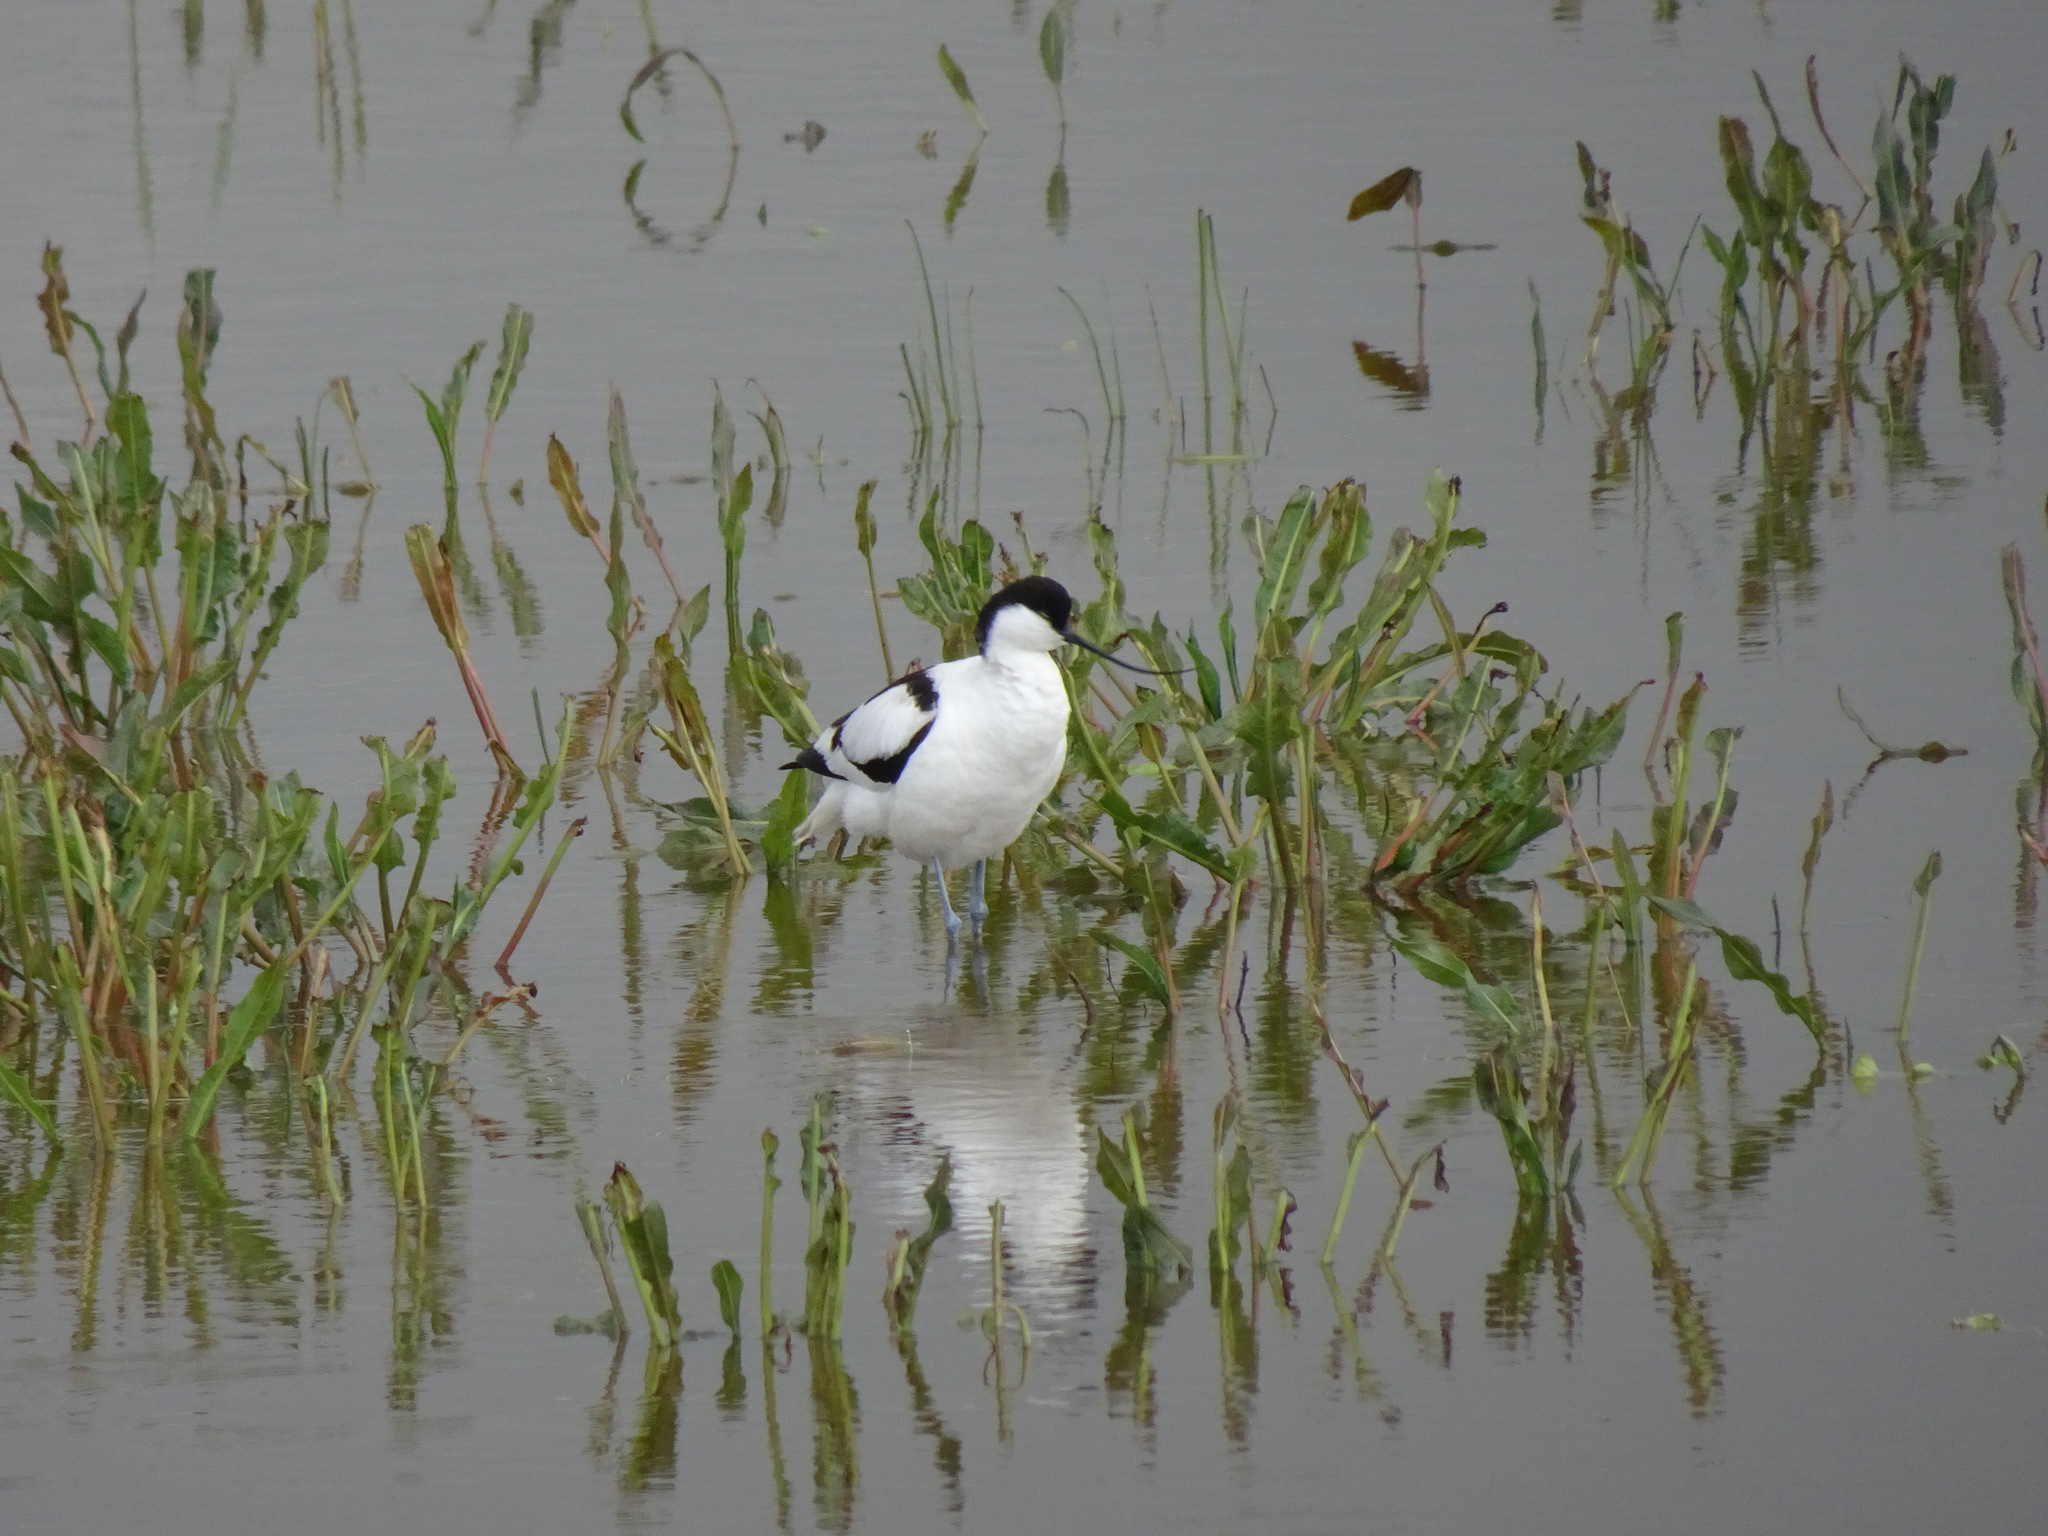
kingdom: Animalia
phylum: Chordata
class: Aves
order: Charadriiformes
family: Recurvirostridae
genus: Recurvirostra
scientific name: Recurvirostra avosetta
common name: Pied avocet
